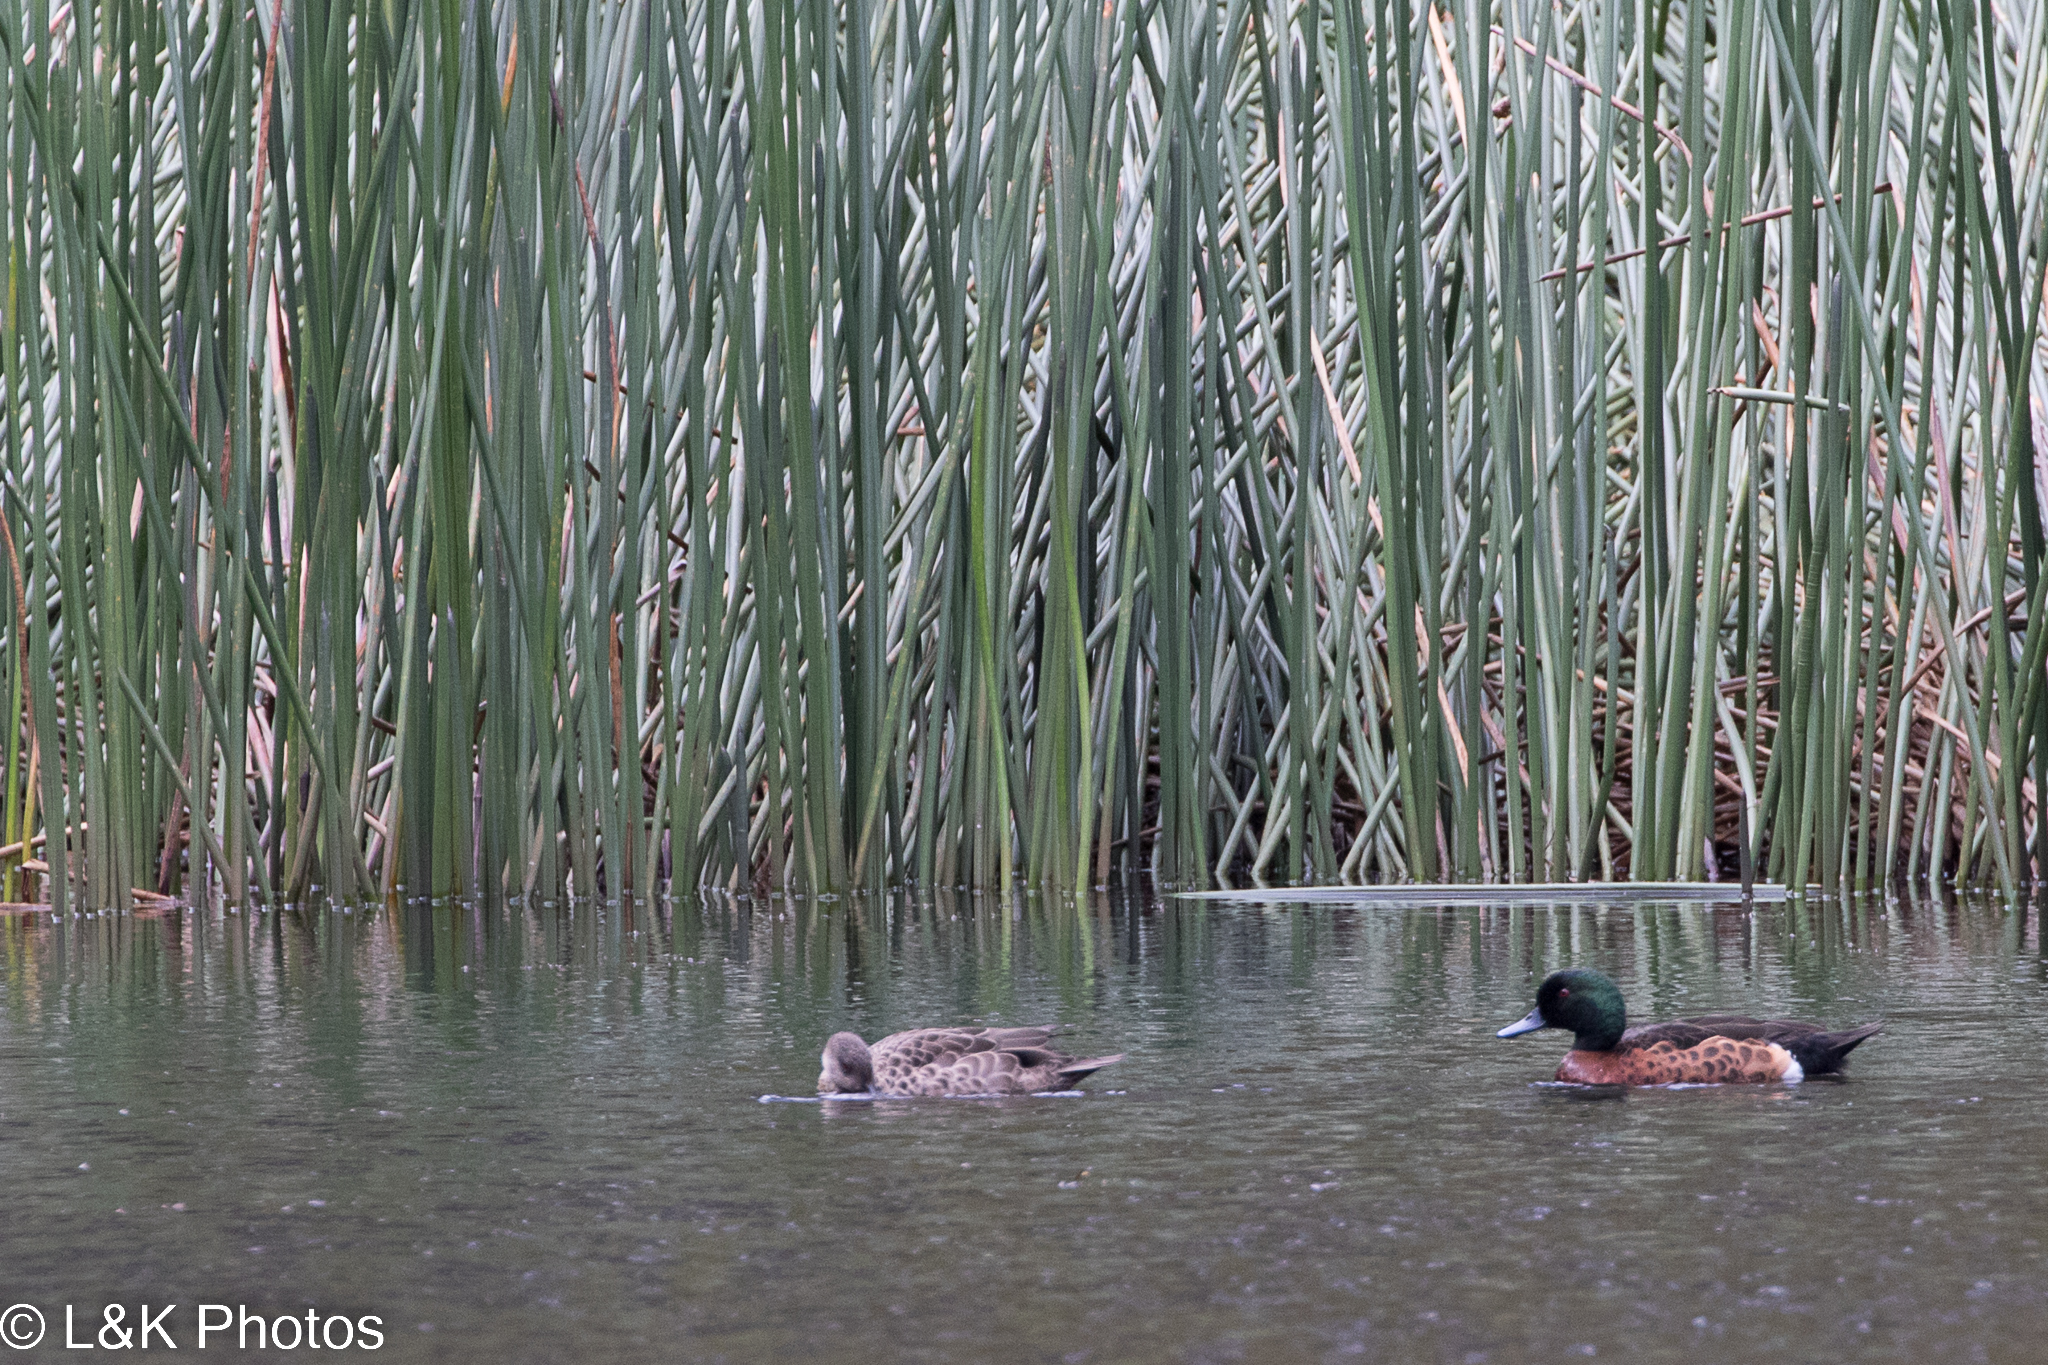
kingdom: Animalia
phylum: Chordata
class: Aves
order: Anseriformes
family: Anatidae
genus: Anas
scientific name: Anas castanea
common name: Chestnut teal
